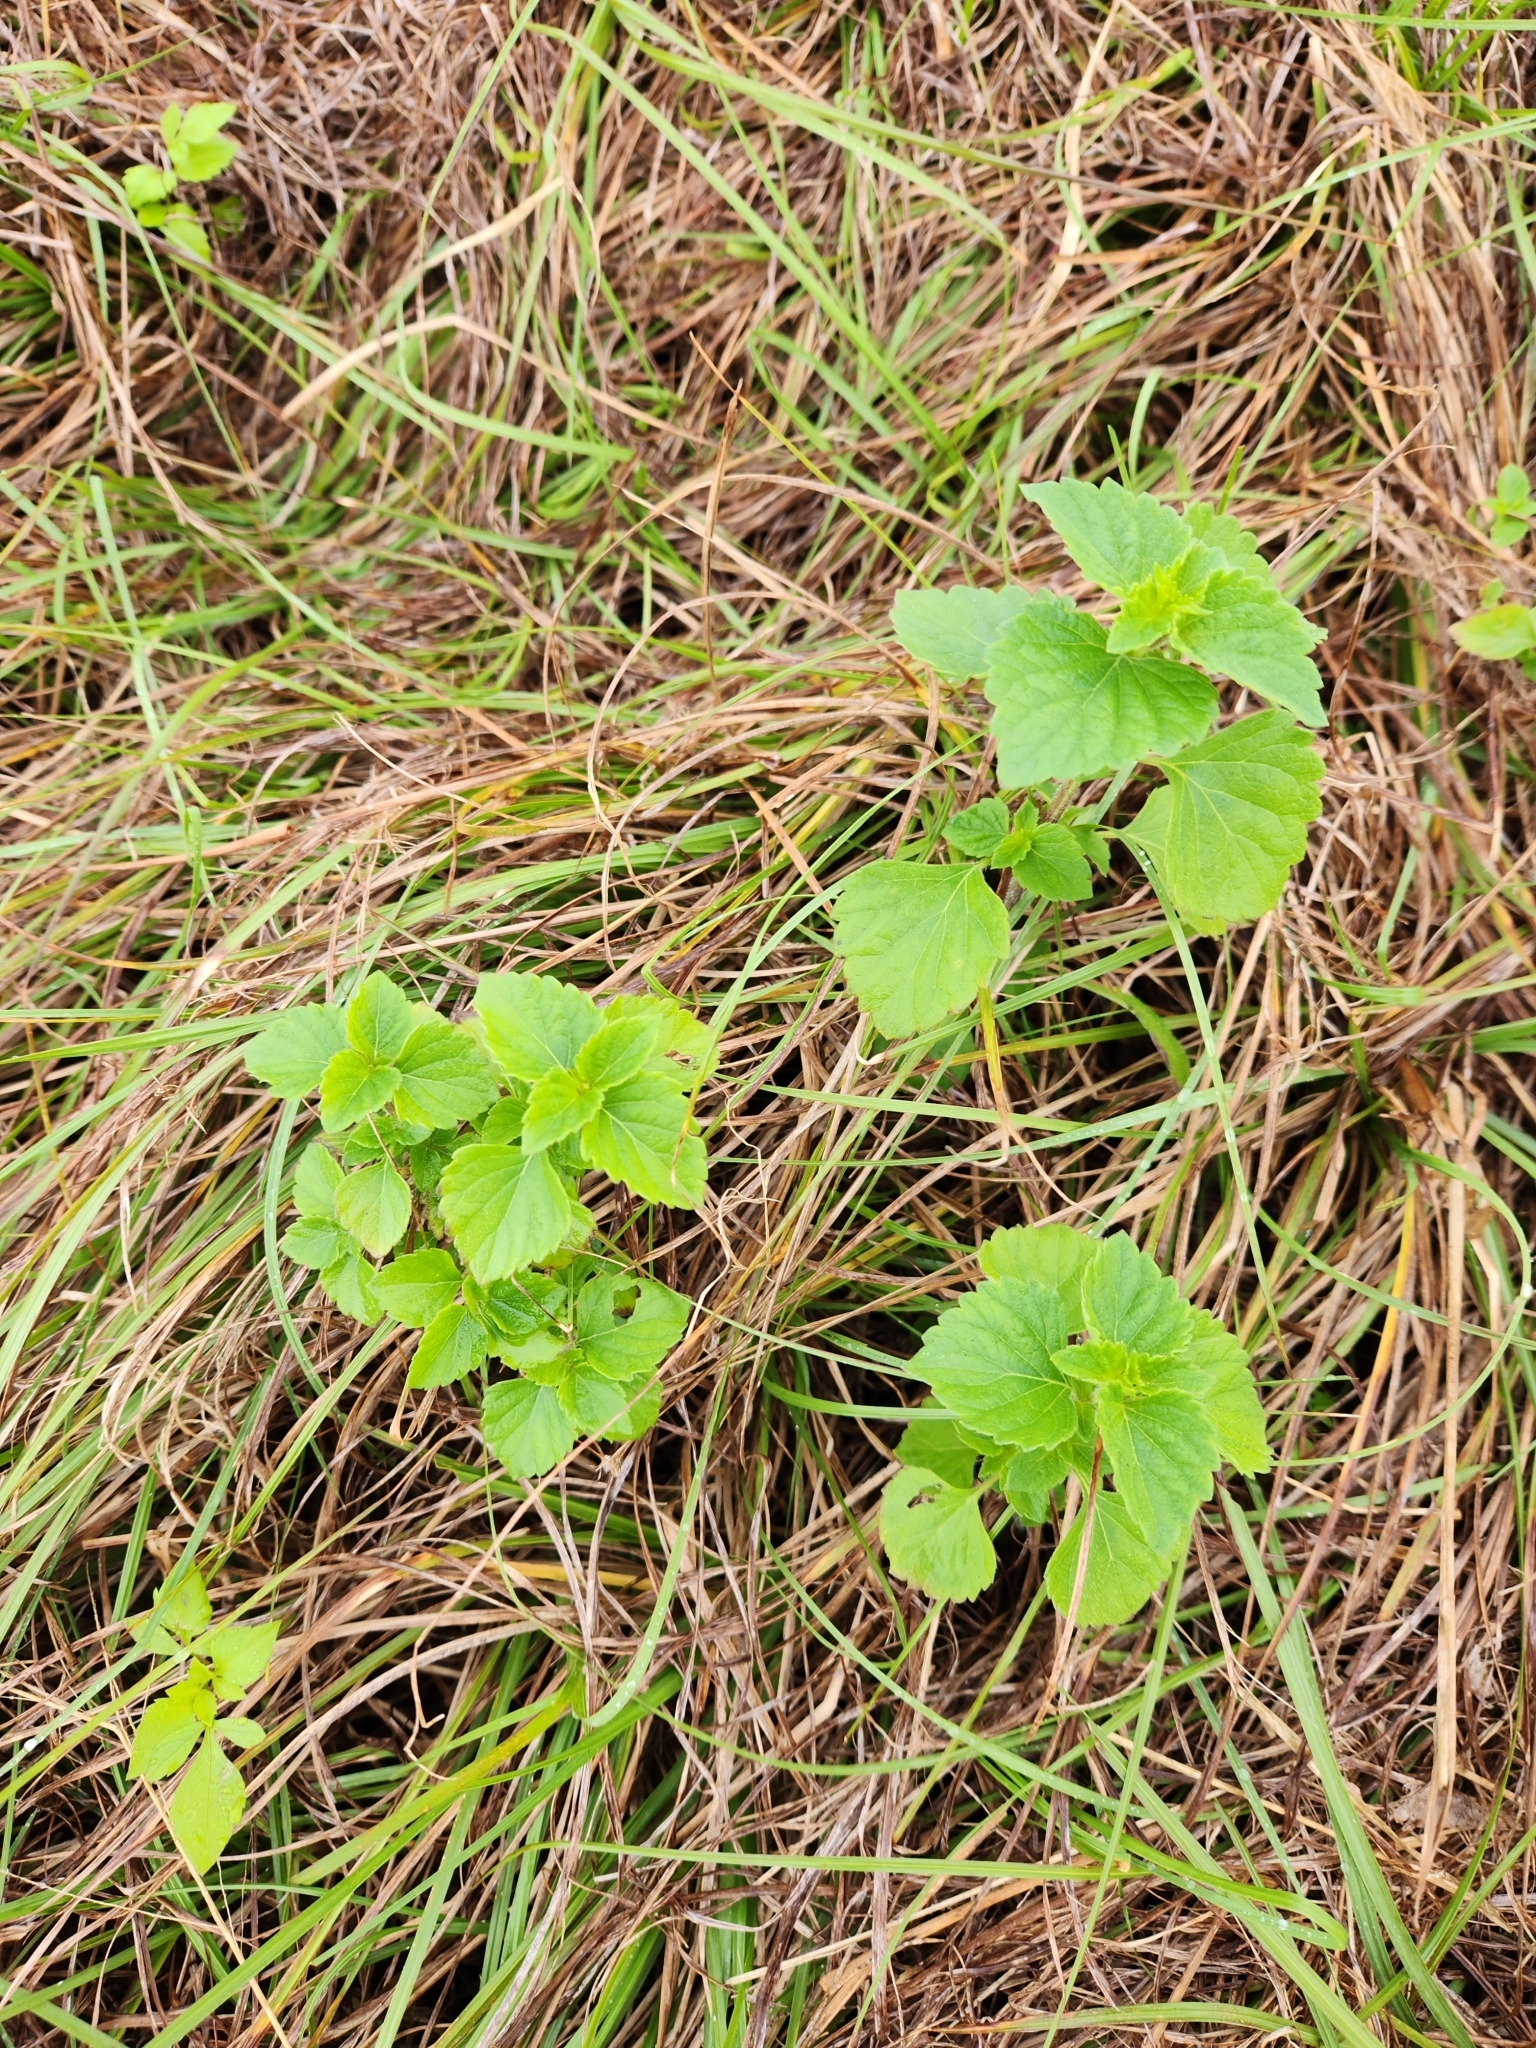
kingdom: Plantae
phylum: Tracheophyta
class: Magnoliopsida
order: Lamiales
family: Lamiaceae
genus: Cantinoa
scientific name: Cantinoa mutabilis
